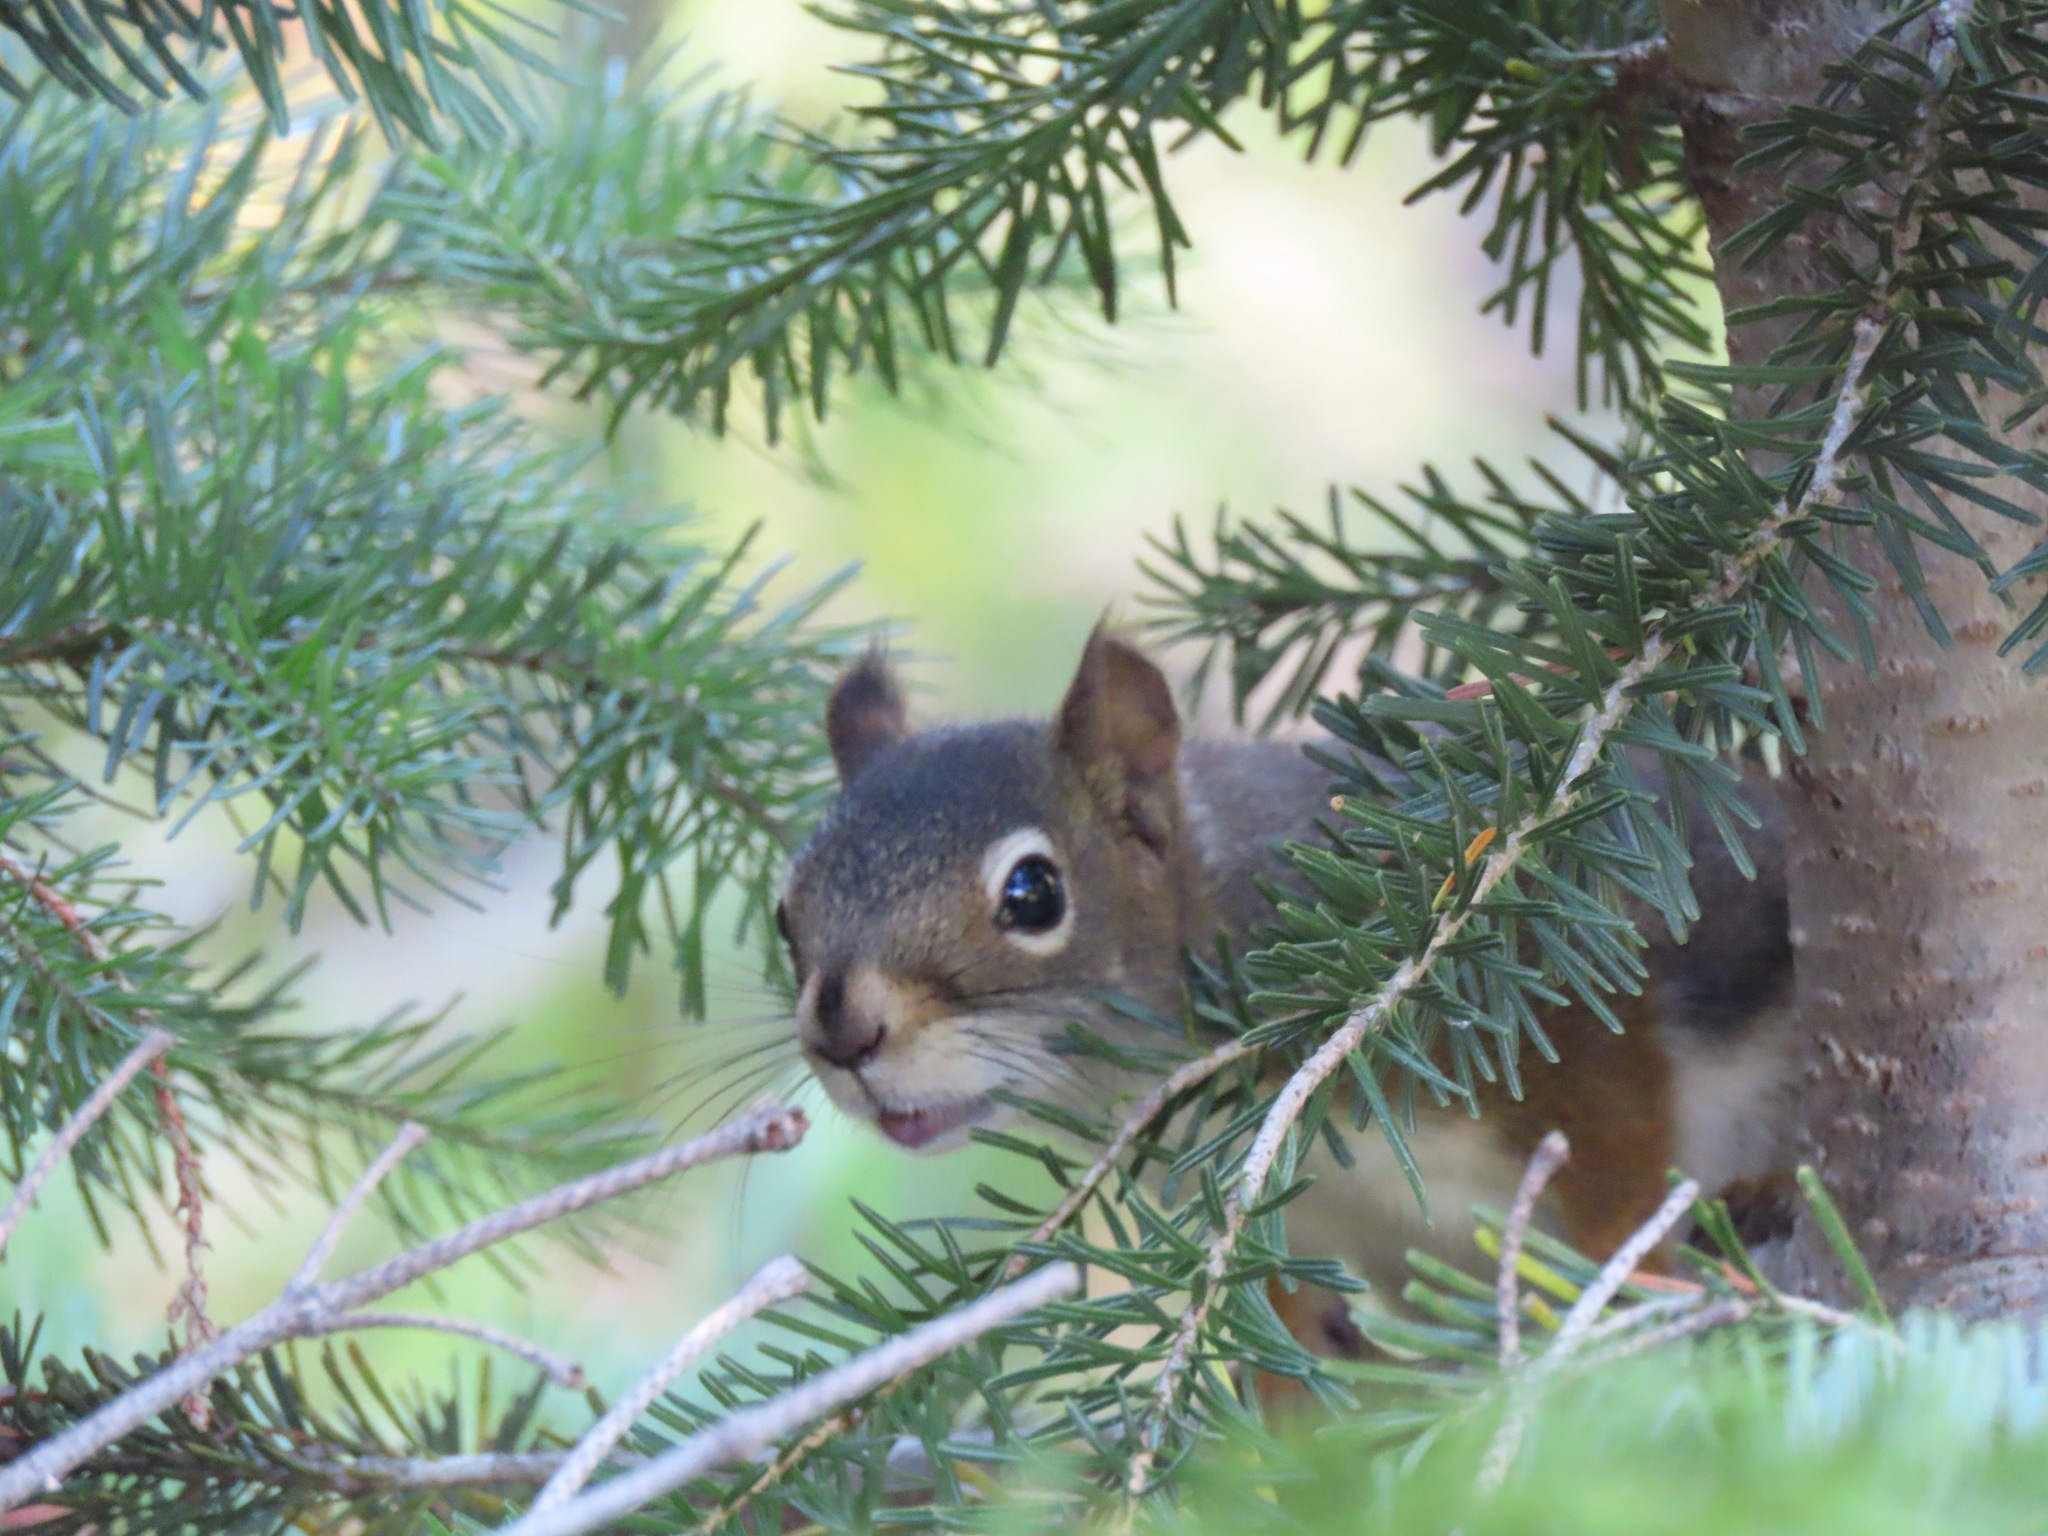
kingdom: Animalia
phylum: Chordata
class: Mammalia
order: Rodentia
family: Sciuridae
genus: Tamiasciurus
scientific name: Tamiasciurus hudsonicus
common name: Red squirrel
